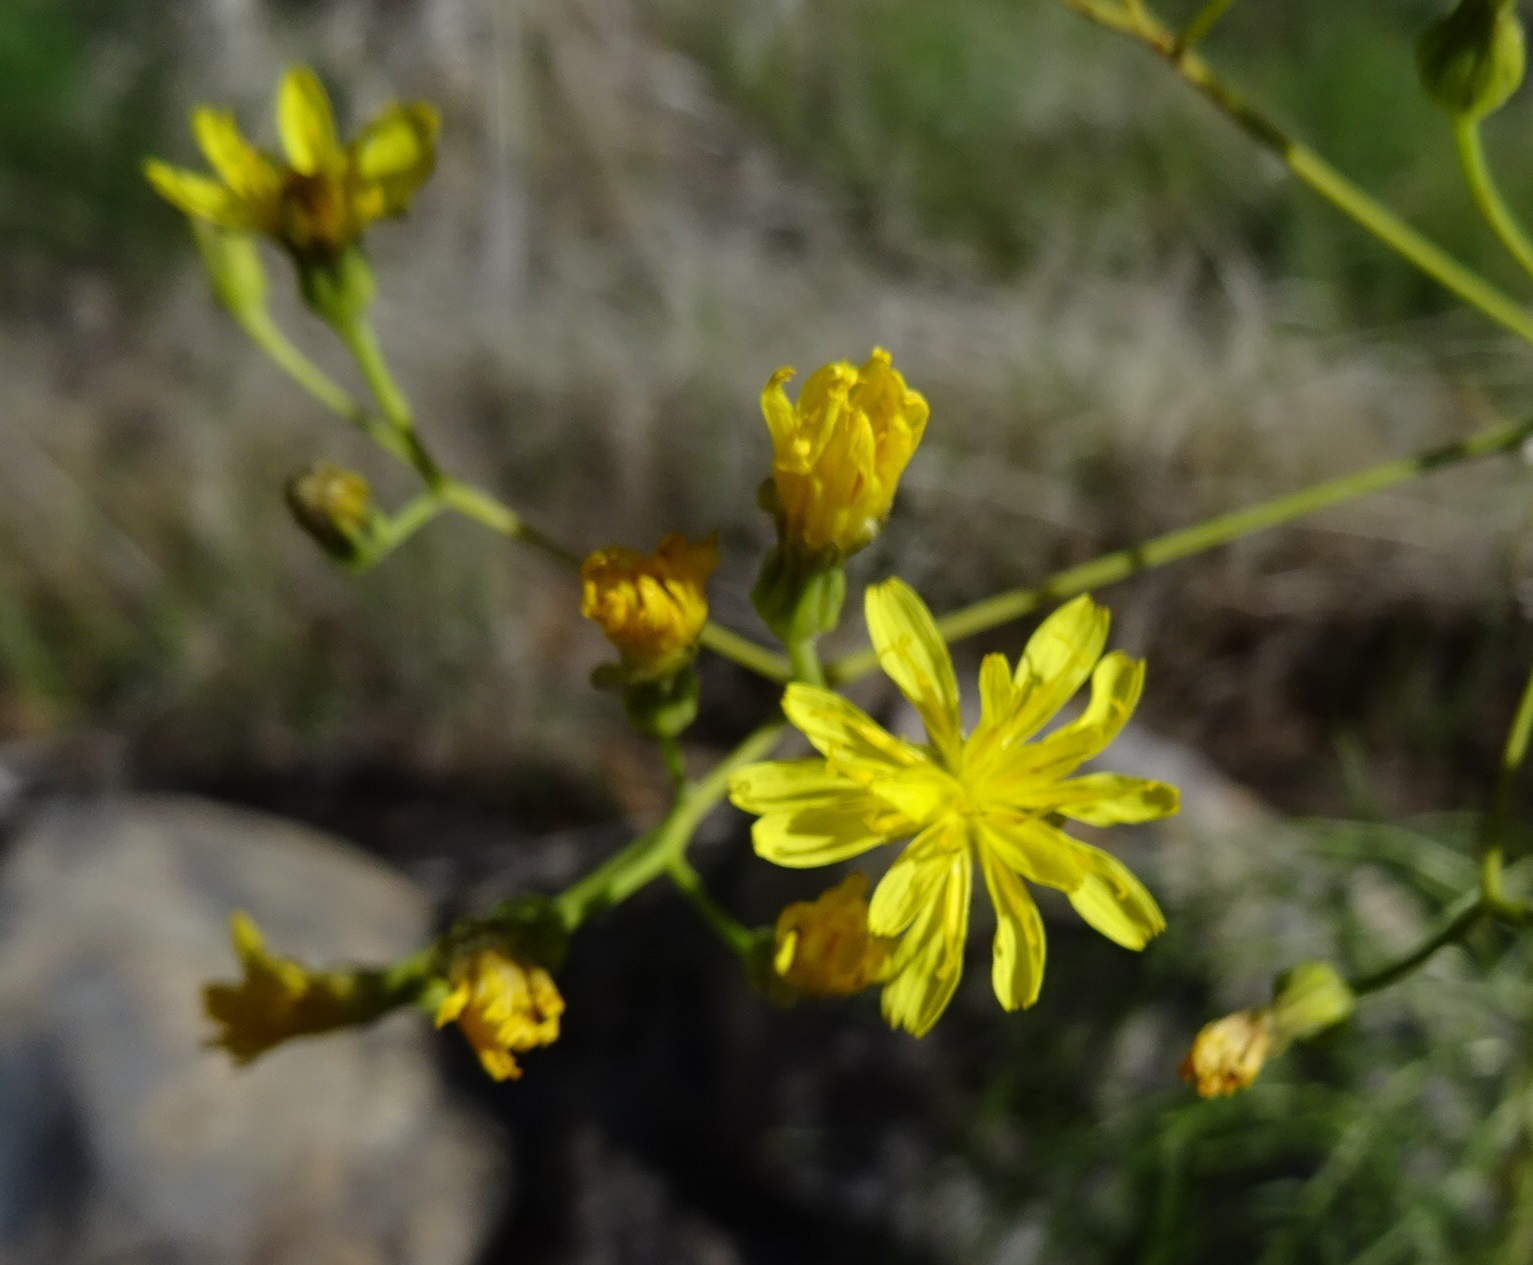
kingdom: Plantae
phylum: Tracheophyta
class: Magnoliopsida
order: Asterales
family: Asteraceae
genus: Sonchus
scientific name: Sonchus leptocephalus
